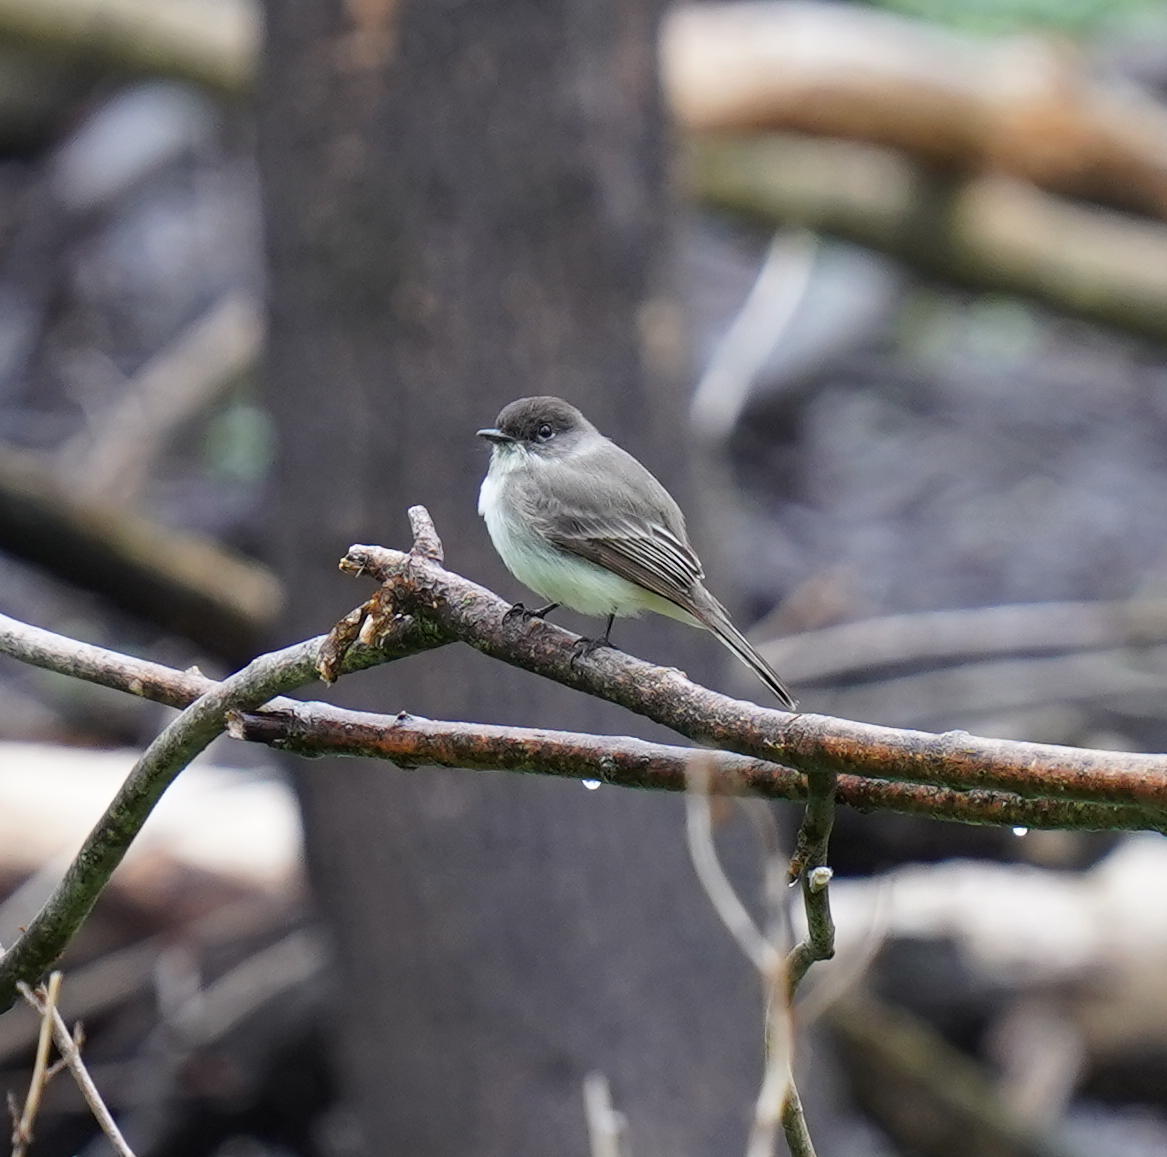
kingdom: Animalia
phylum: Chordata
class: Aves
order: Passeriformes
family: Tyrannidae
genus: Sayornis
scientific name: Sayornis phoebe
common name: Eastern phoebe
